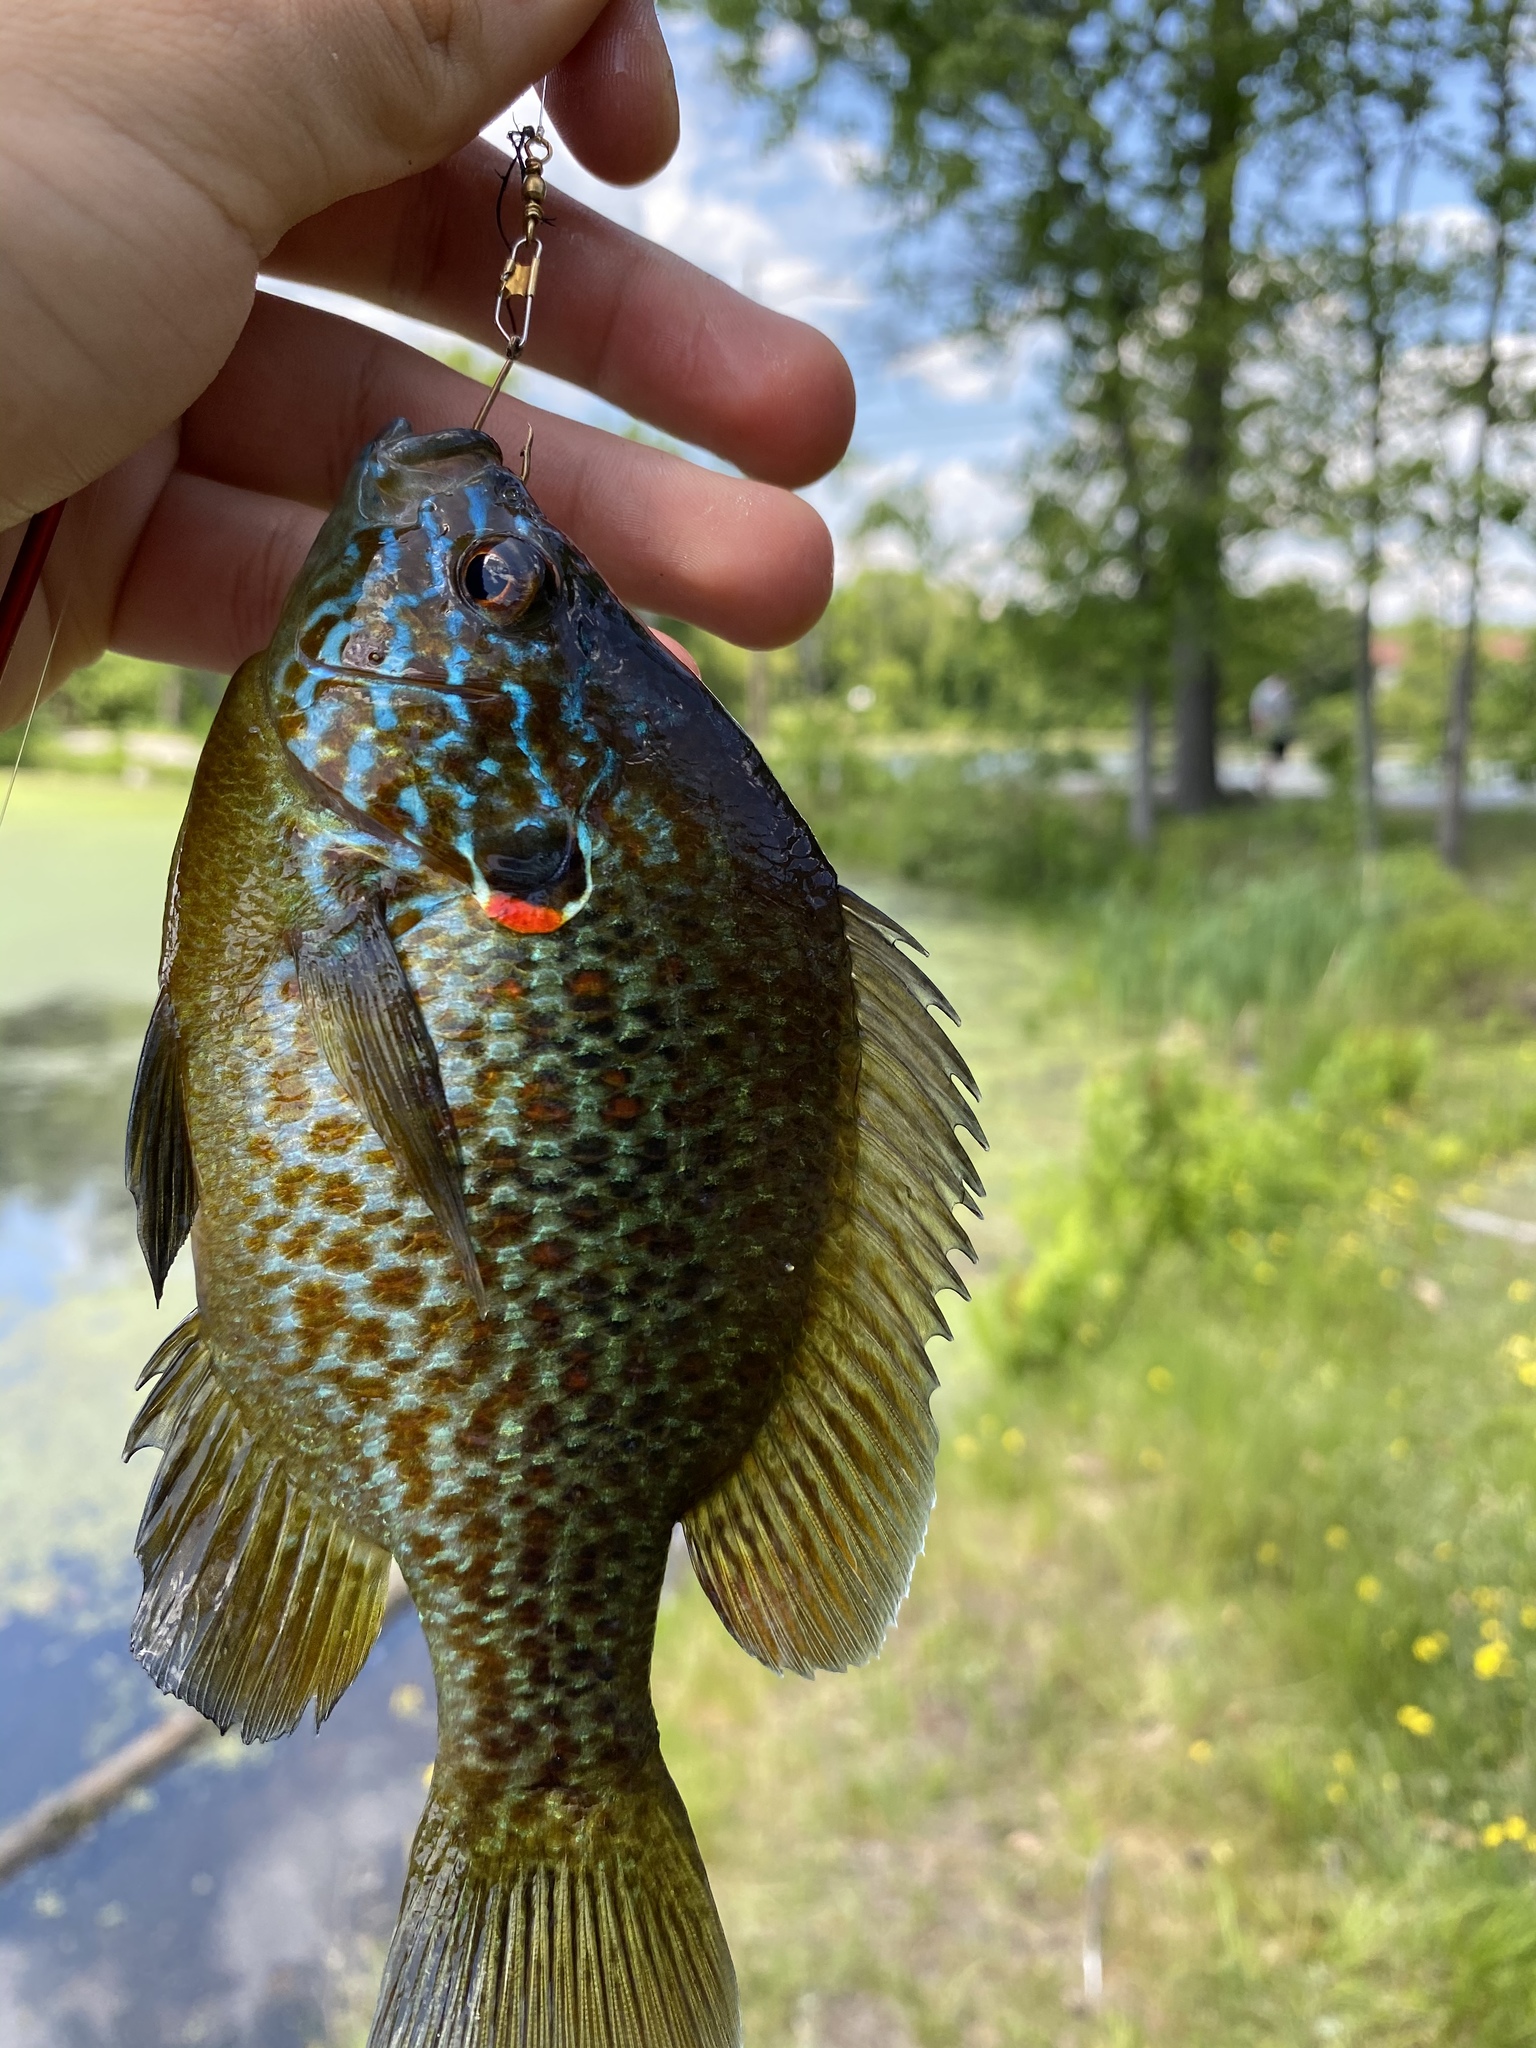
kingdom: Animalia
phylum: Chordata
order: Perciformes
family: Centrarchidae
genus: Lepomis
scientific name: Lepomis gibbosus
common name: Pumpkinseed
